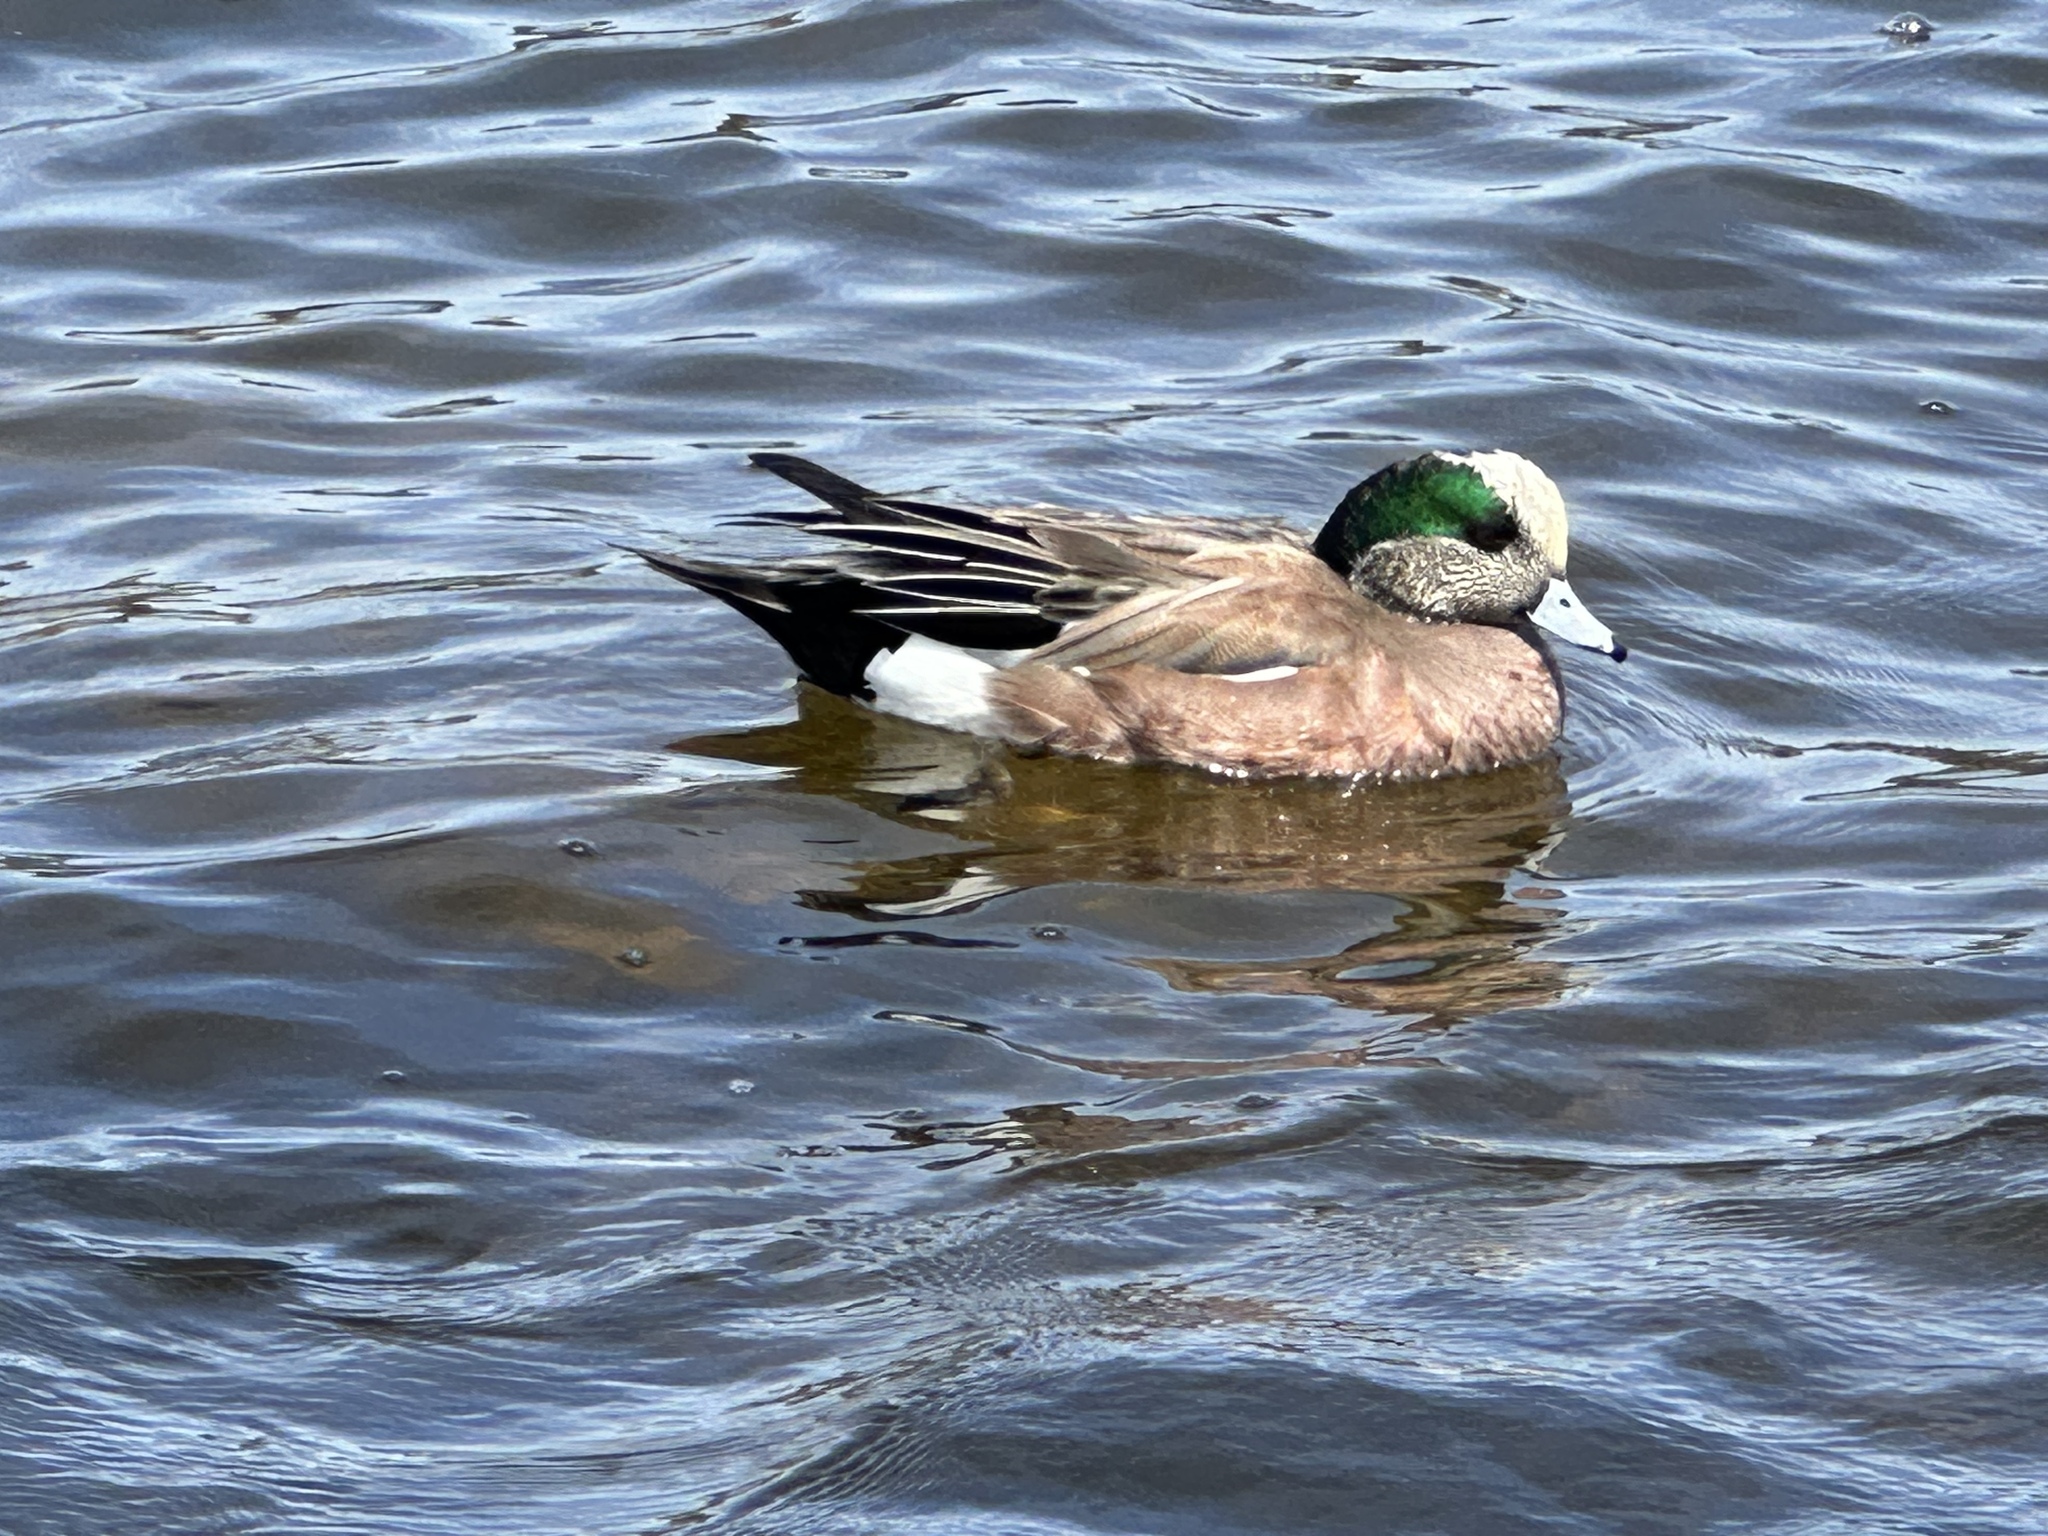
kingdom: Animalia
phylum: Chordata
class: Aves
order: Anseriformes
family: Anatidae
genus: Mareca
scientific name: Mareca americana
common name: American wigeon
